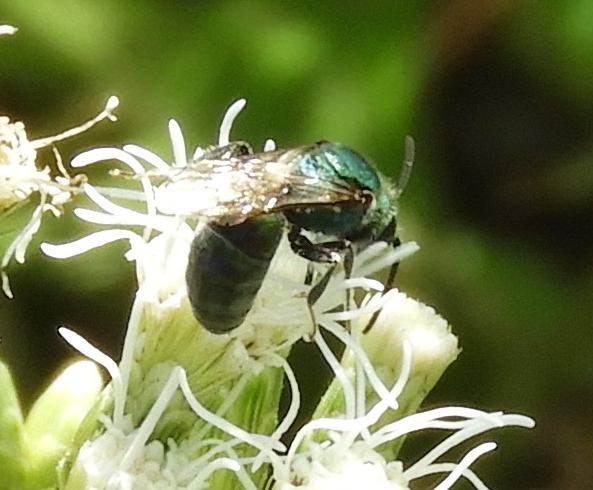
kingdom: Animalia
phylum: Arthropoda
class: Insecta
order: Hymenoptera
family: Halictidae
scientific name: Halictidae
